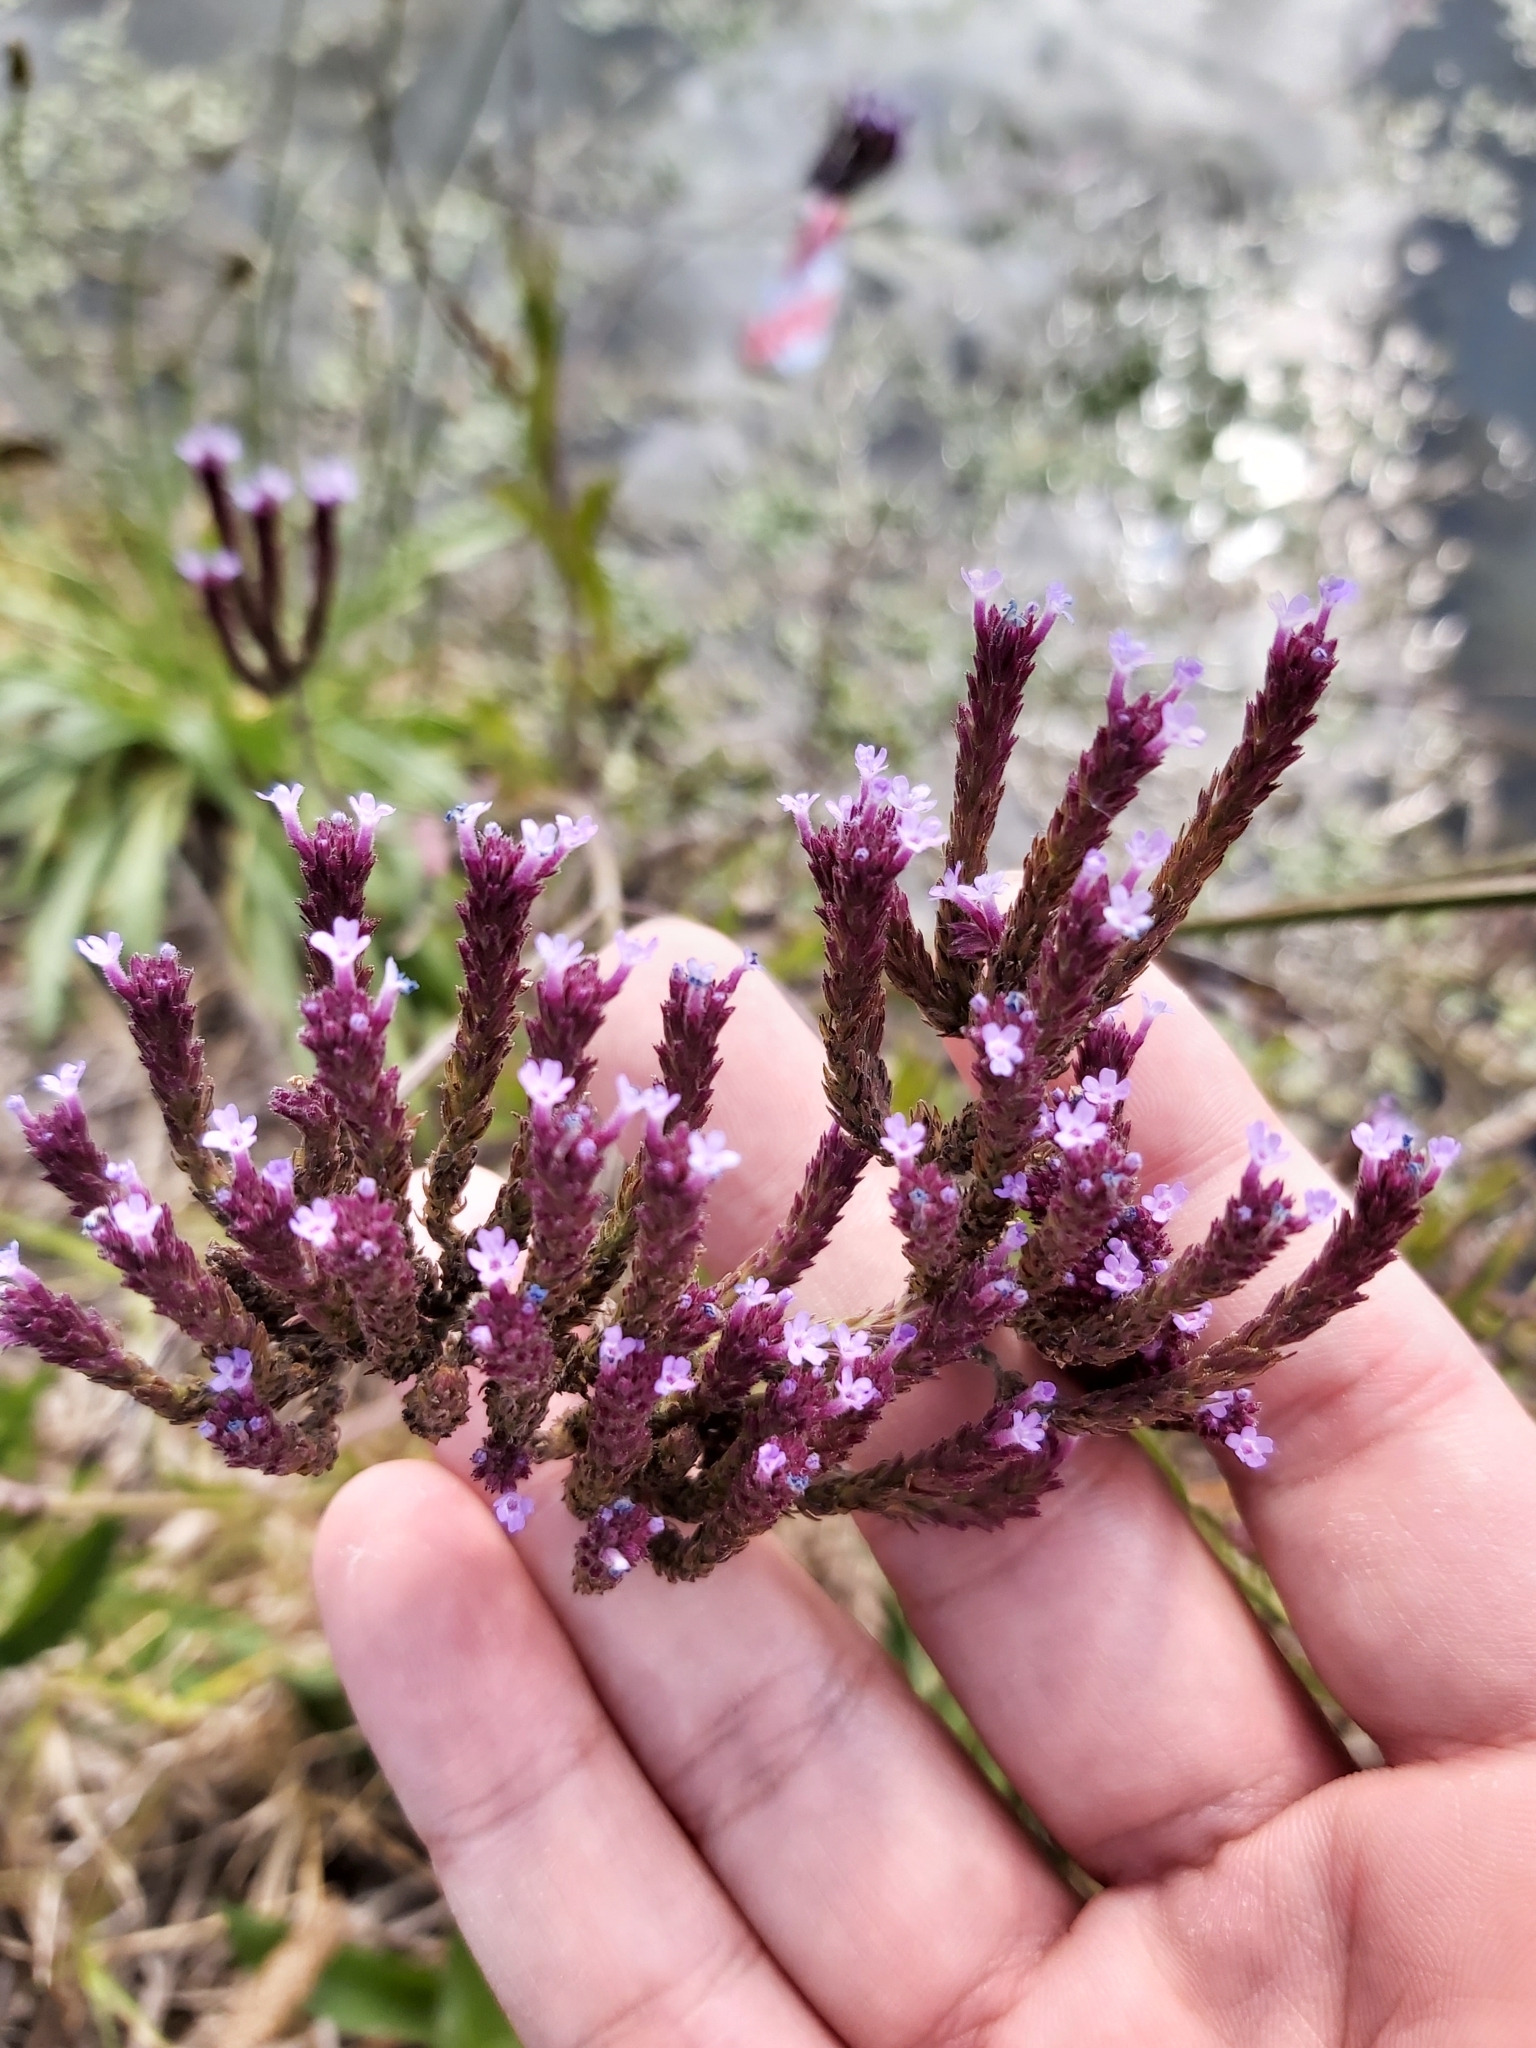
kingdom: Plantae
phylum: Tracheophyta
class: Magnoliopsida
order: Lamiales
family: Verbenaceae
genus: Verbena
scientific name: Verbena bonariensis
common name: Purpletop vervain
